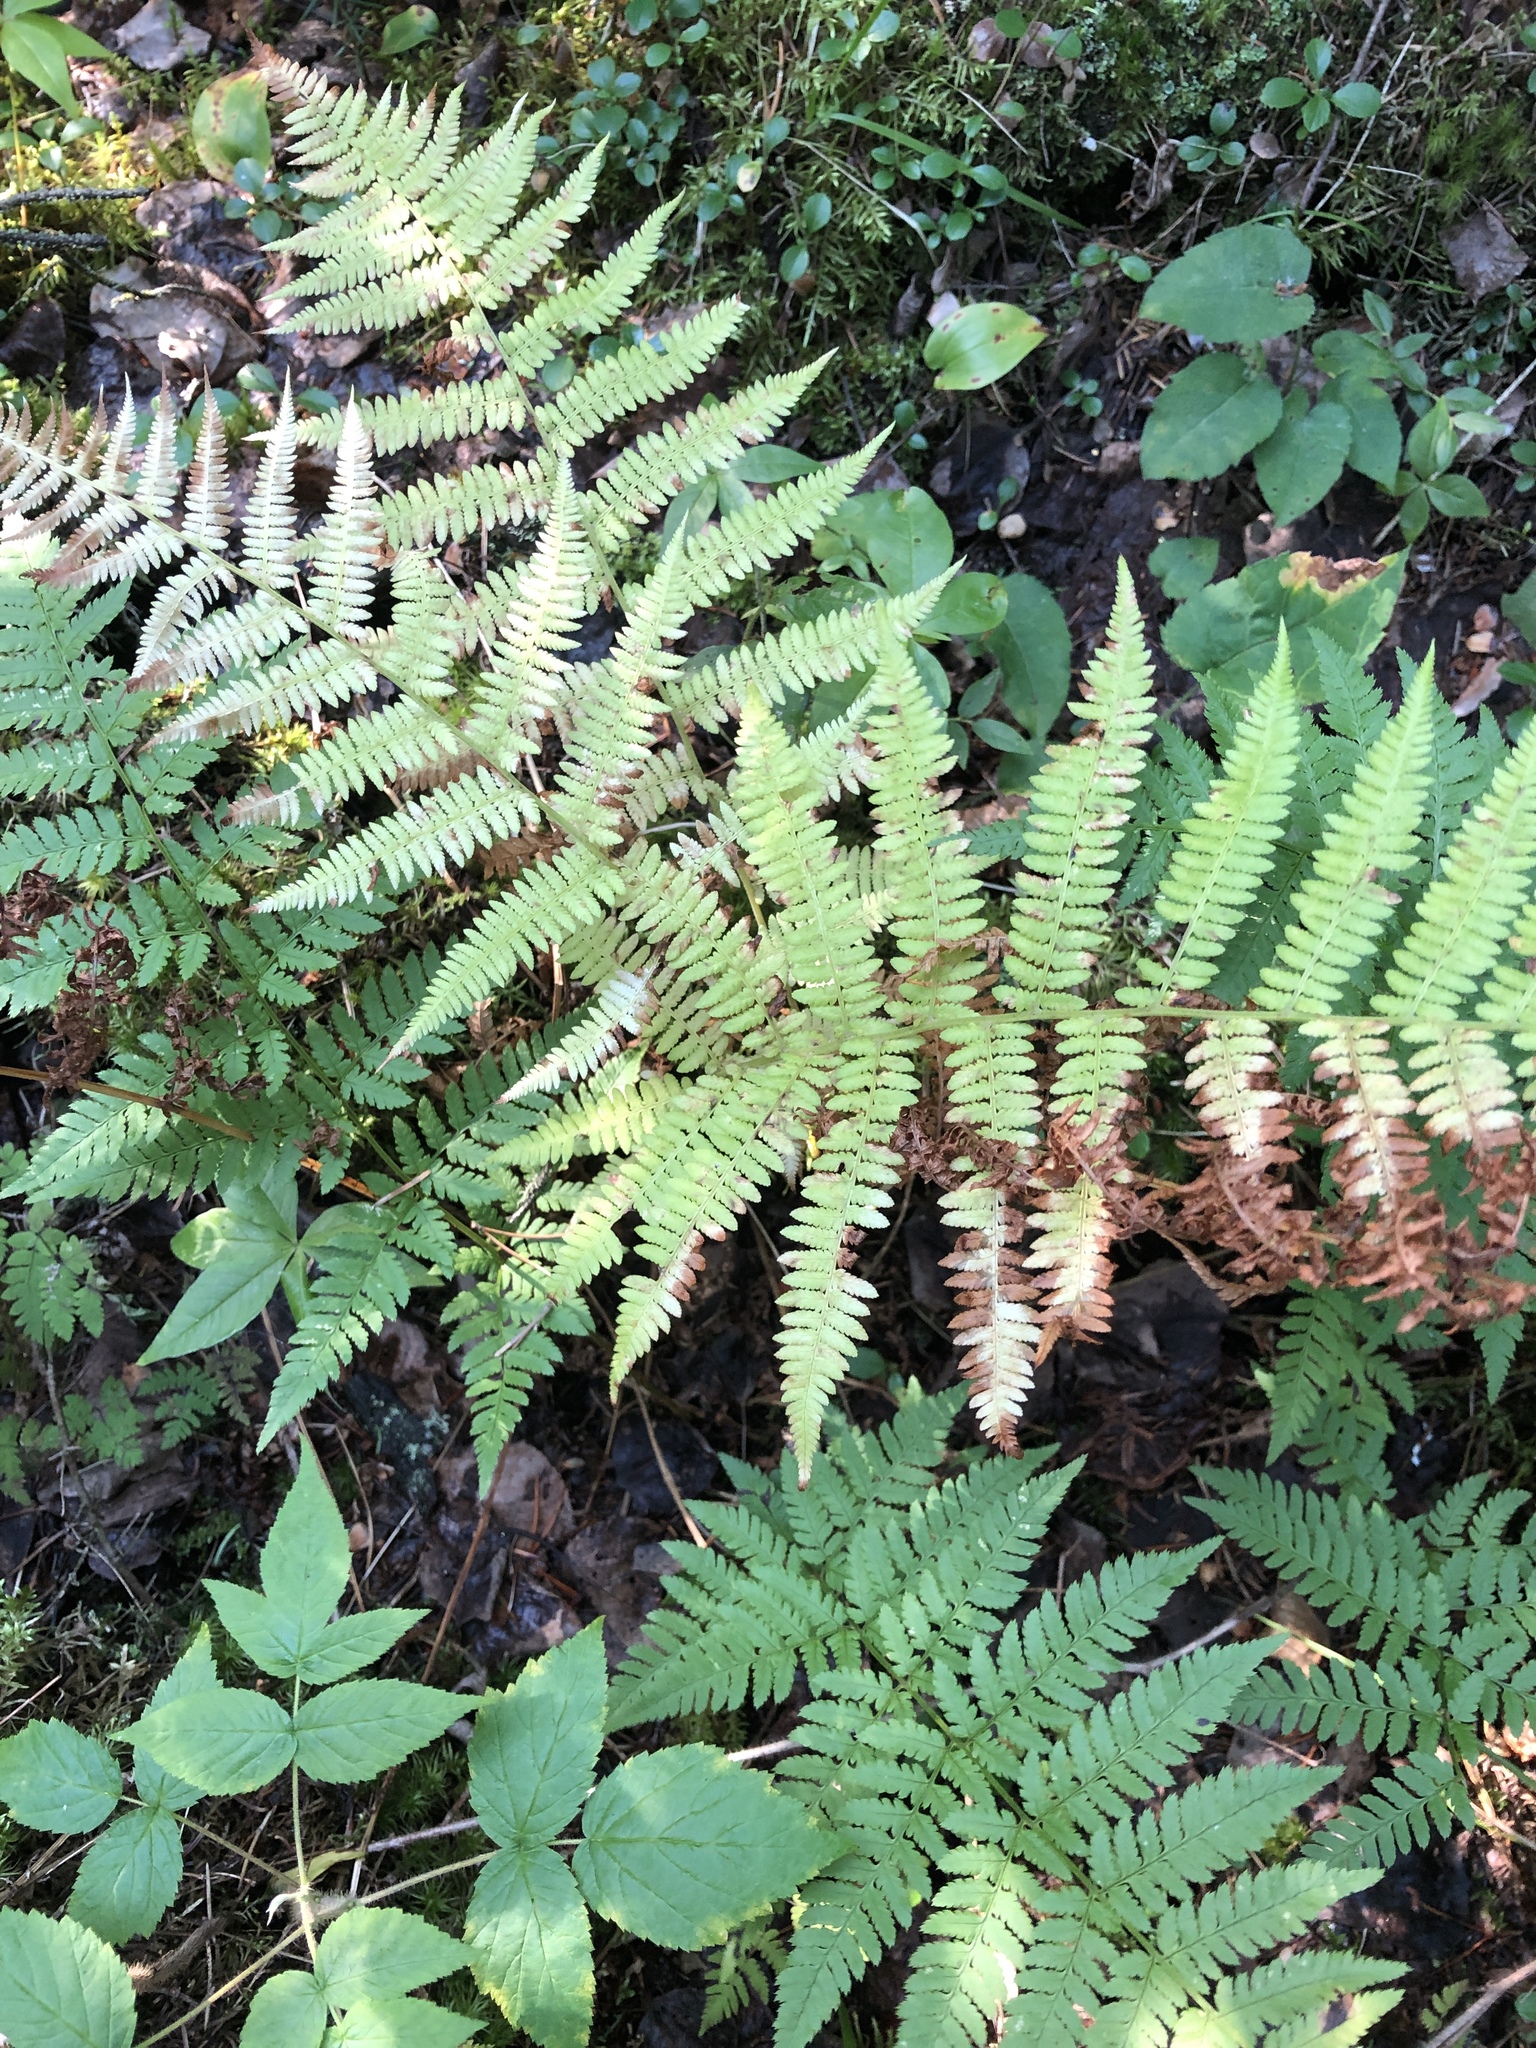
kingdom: Plantae
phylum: Tracheophyta
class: Polypodiopsida
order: Polypodiales
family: Dryopteridaceae
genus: Dryopteris
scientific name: Dryopteris carthusiana
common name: Narrow buckler-fern
